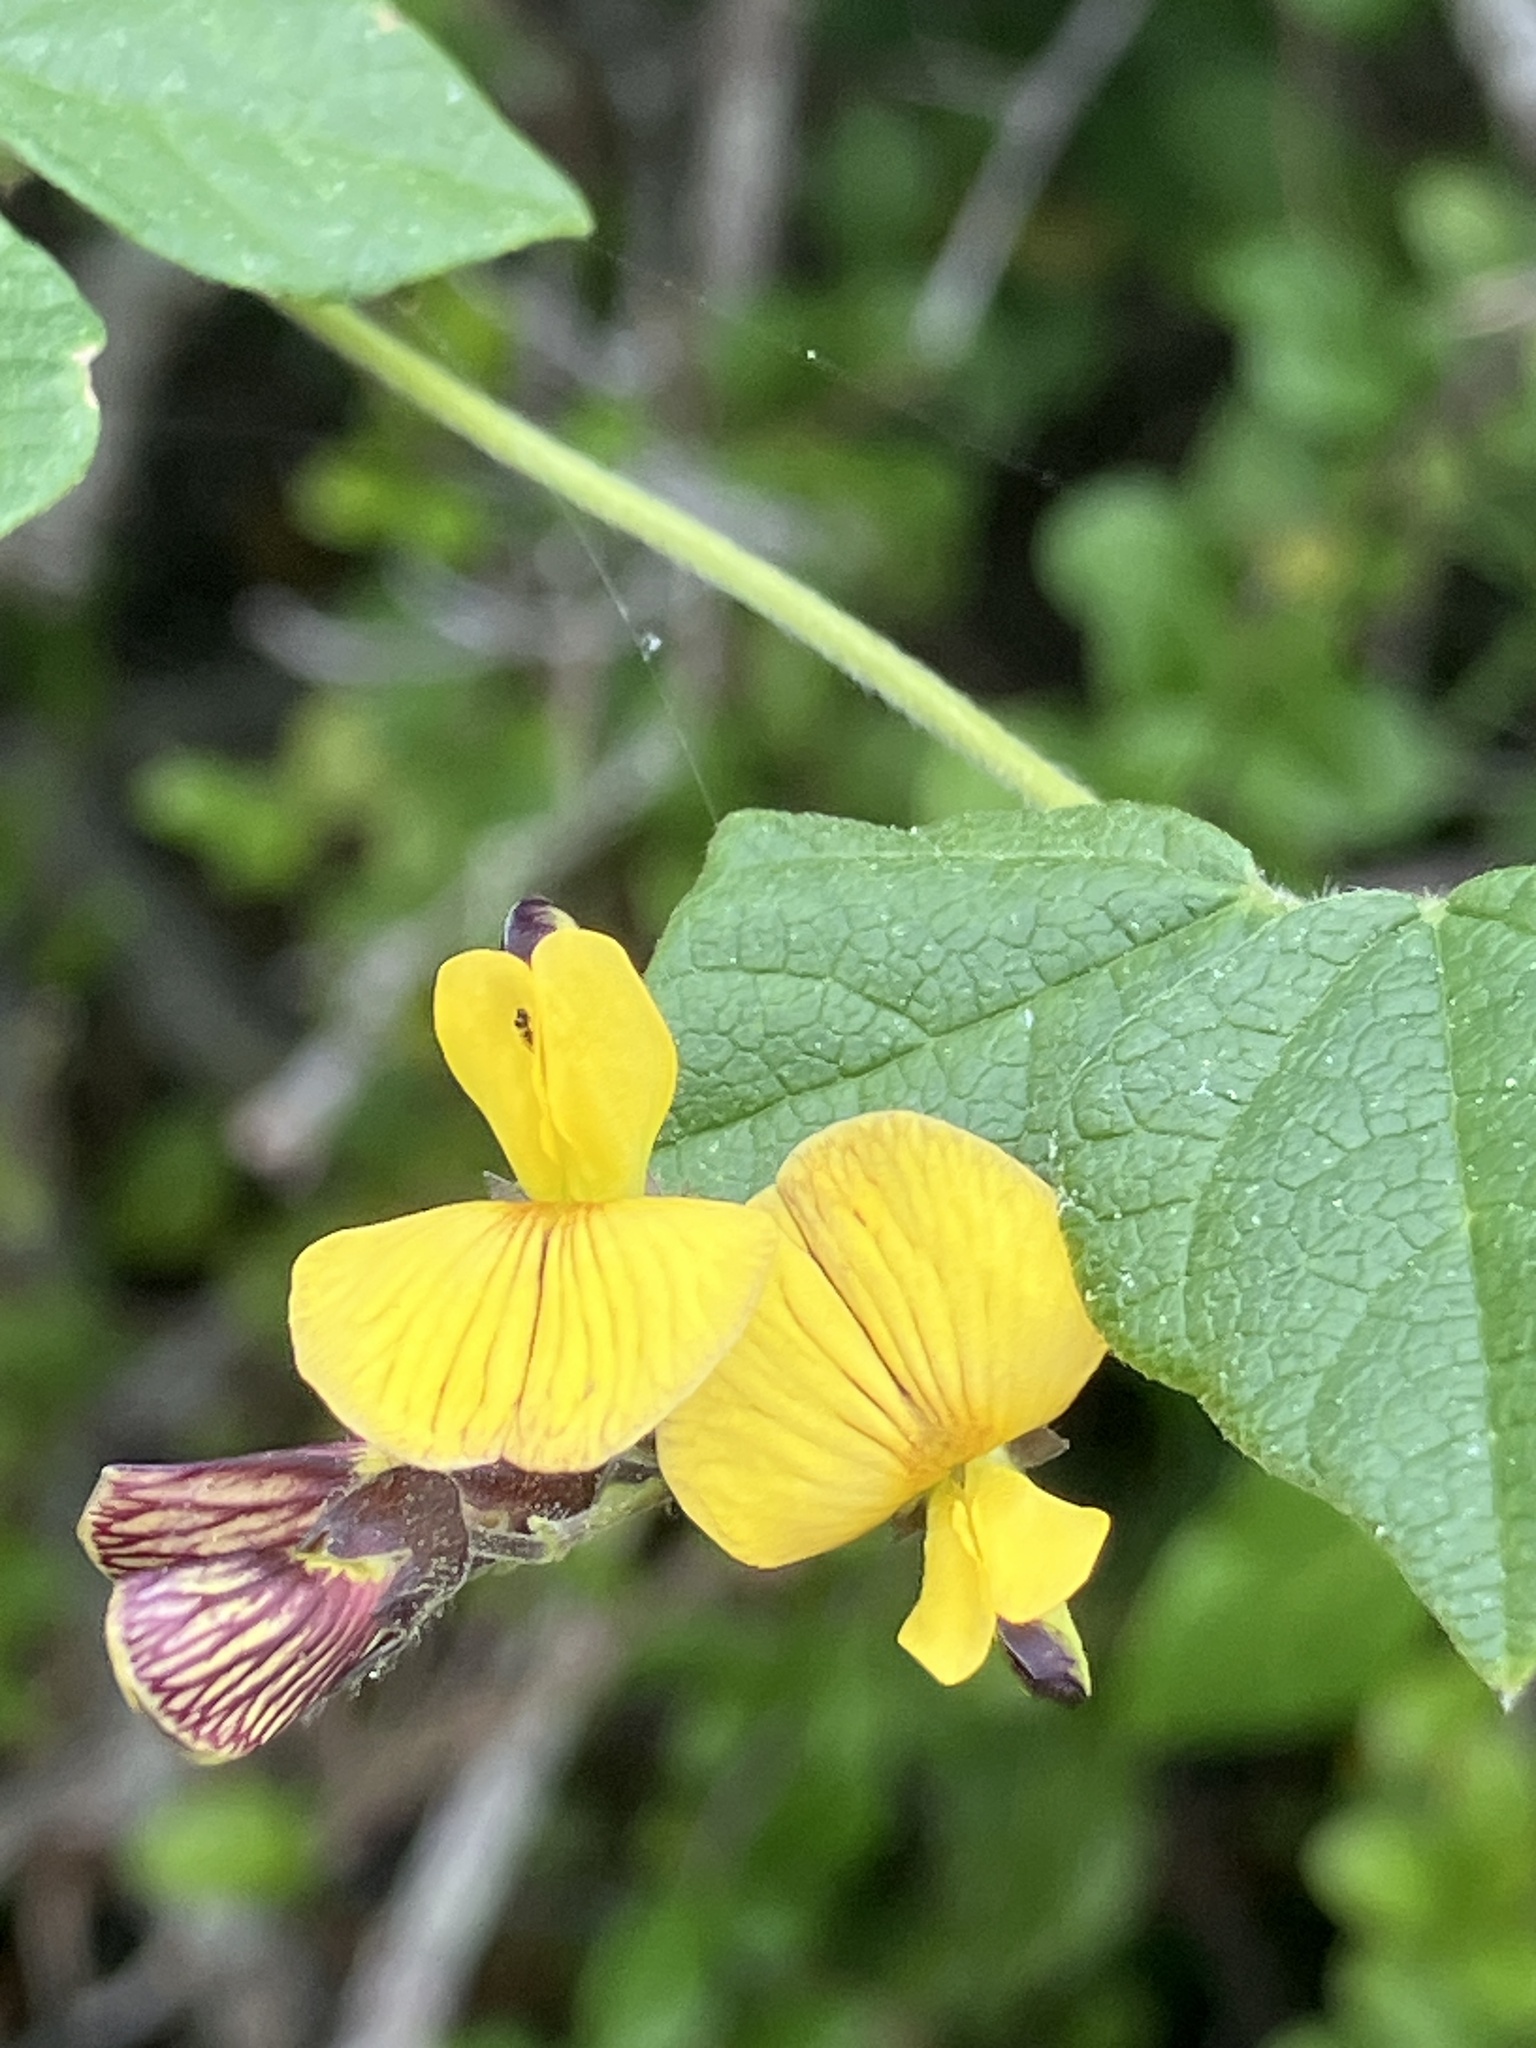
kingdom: Plantae
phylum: Tracheophyta
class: Magnoliopsida
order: Fabales
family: Fabaceae
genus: Rhynchosia
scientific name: Rhynchosia caribaea
